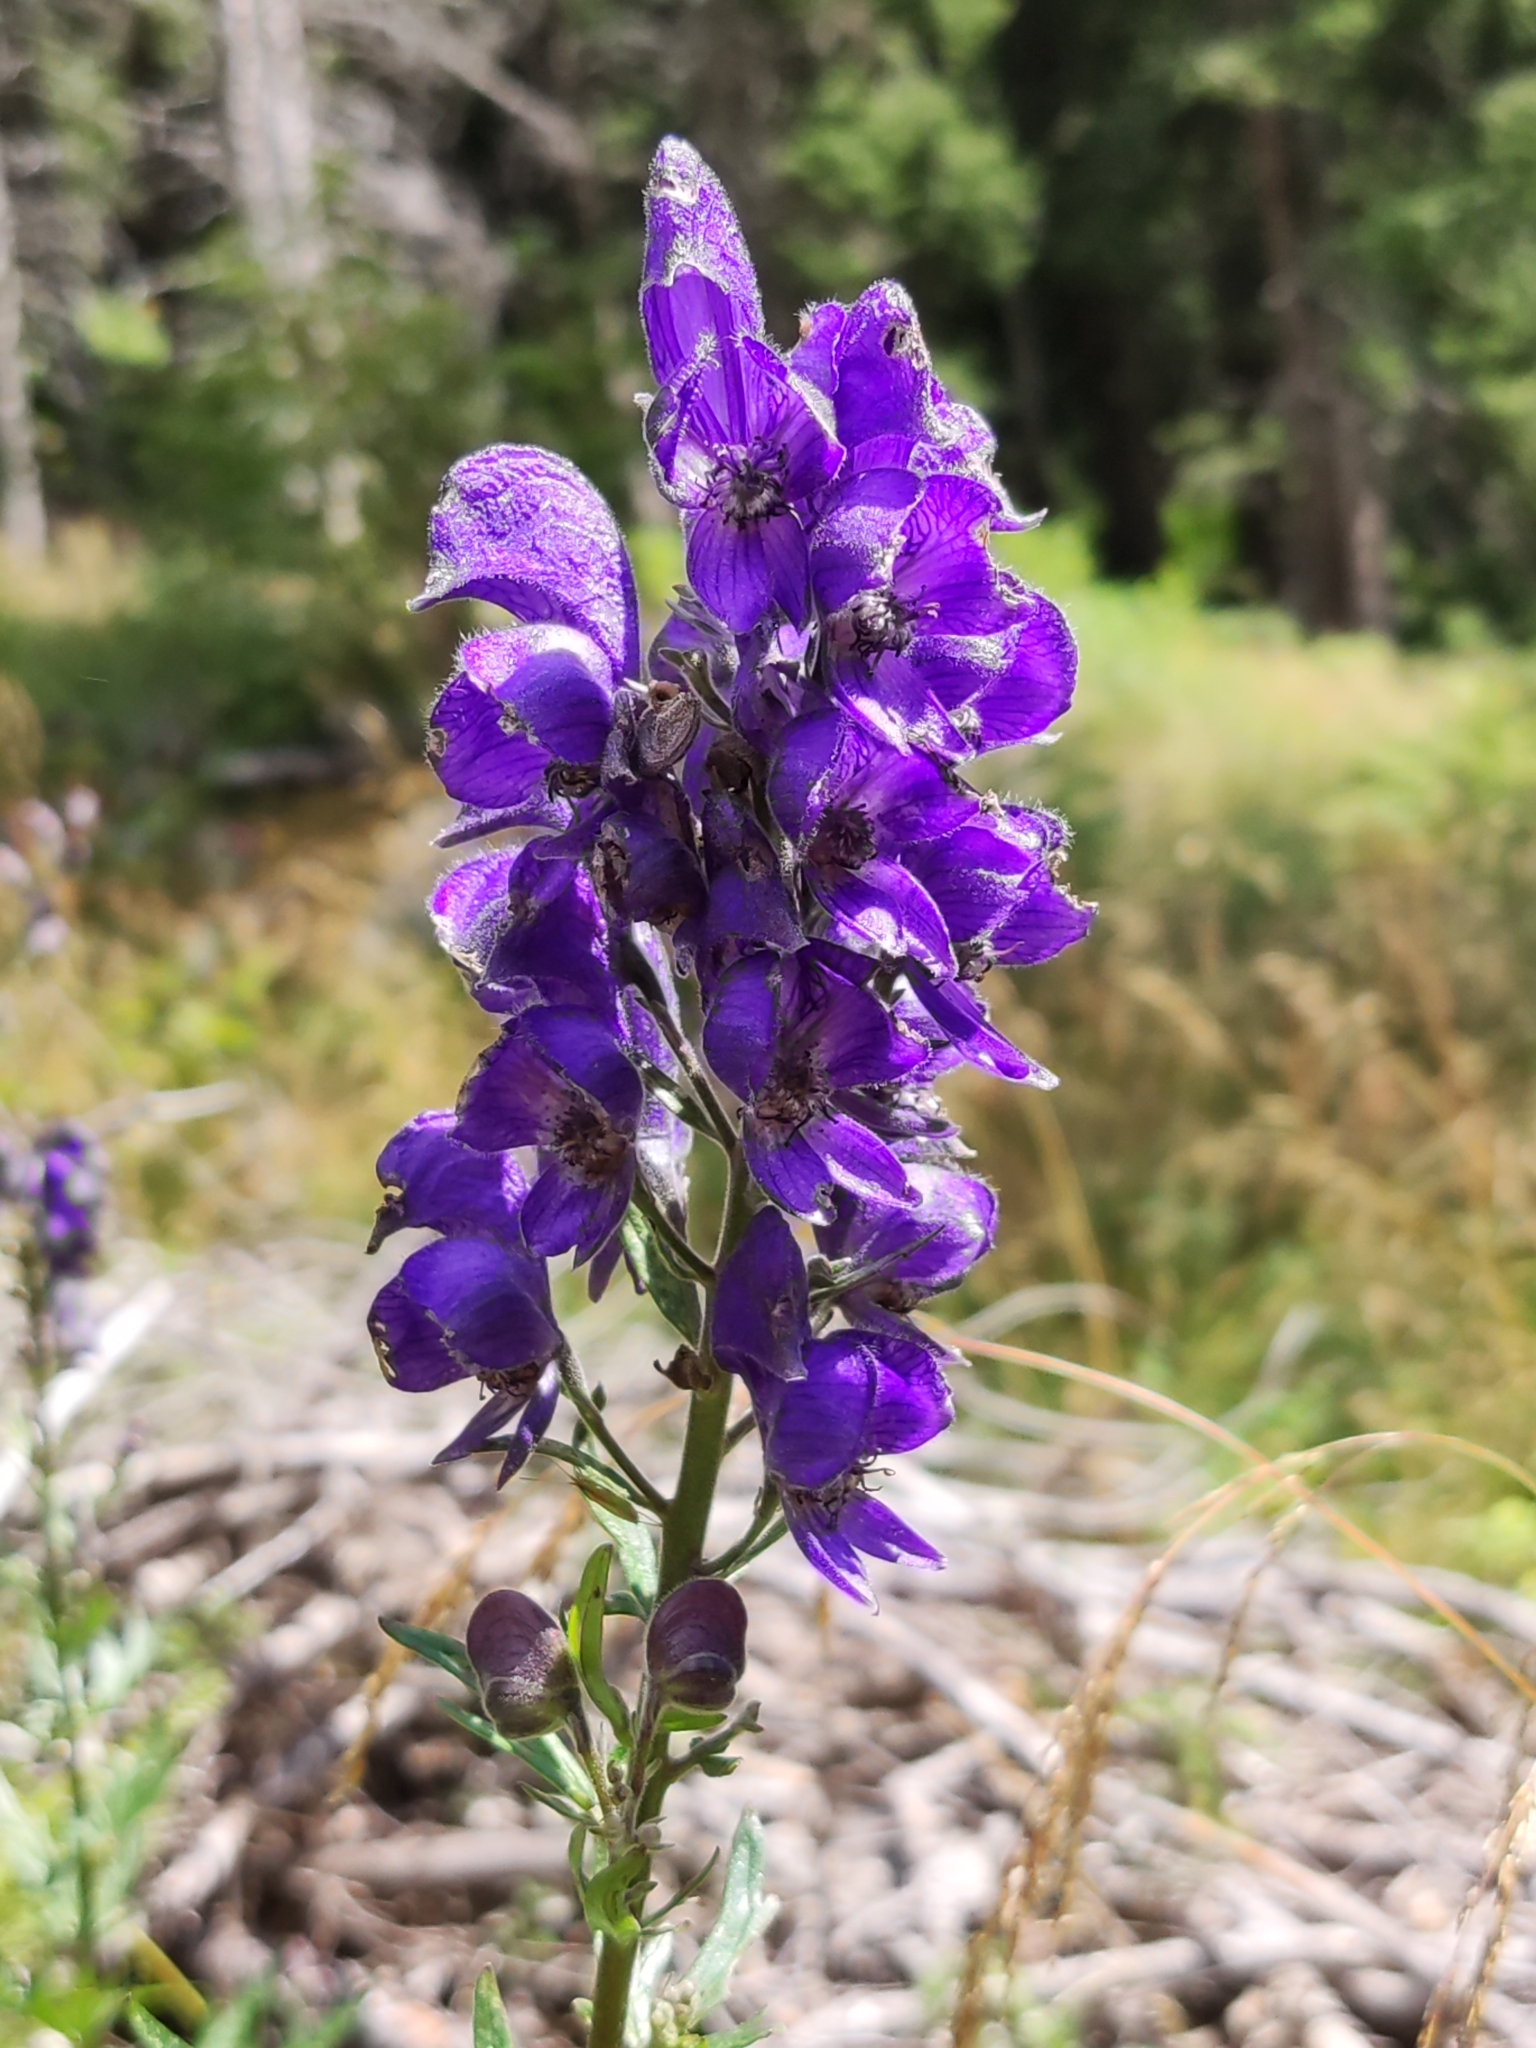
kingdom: Plantae
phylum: Tracheophyta
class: Magnoliopsida
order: Ranunculales
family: Ranunculaceae
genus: Aconitum
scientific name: Aconitum napellus
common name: Garden monkshood
